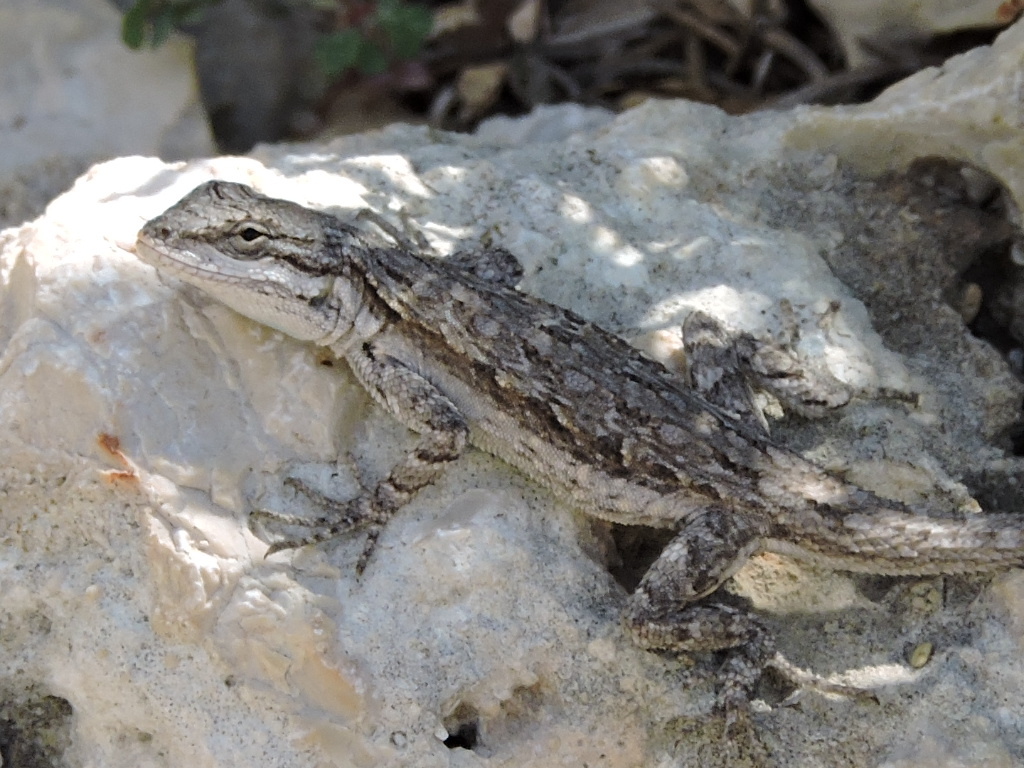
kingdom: Animalia
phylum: Chordata
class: Squamata
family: Phrynosomatidae
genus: Urosaurus
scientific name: Urosaurus ornatus
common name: Ornate tree lizard
